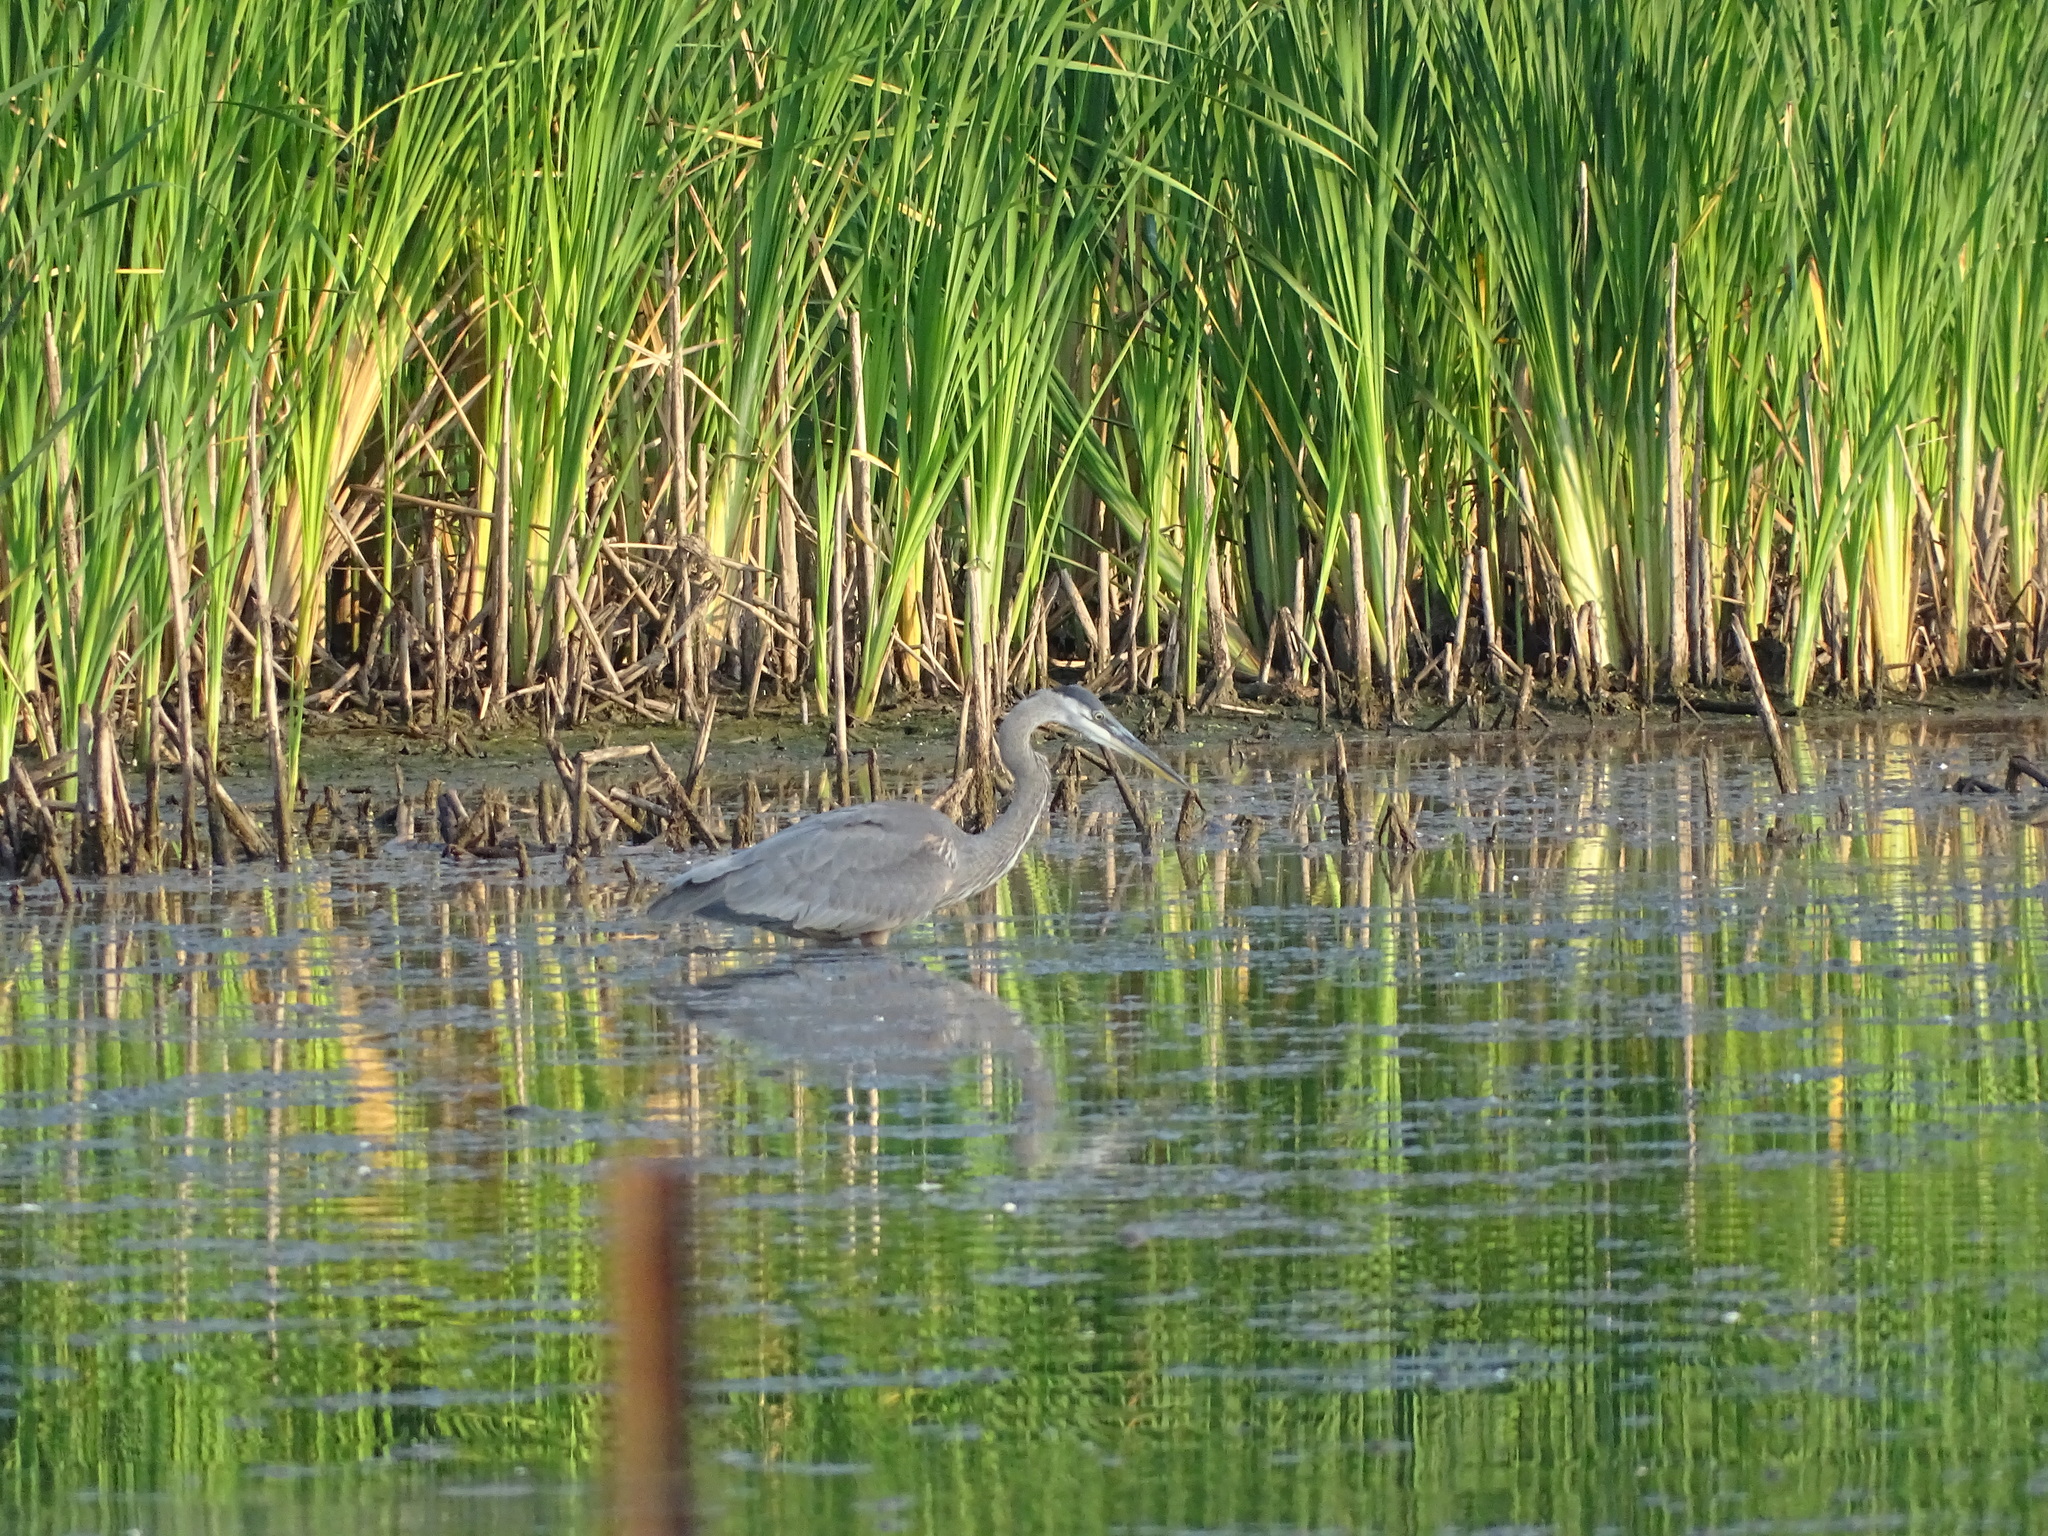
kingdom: Animalia
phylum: Chordata
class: Aves
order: Pelecaniformes
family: Ardeidae
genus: Ardea
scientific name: Ardea herodias
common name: Great blue heron
